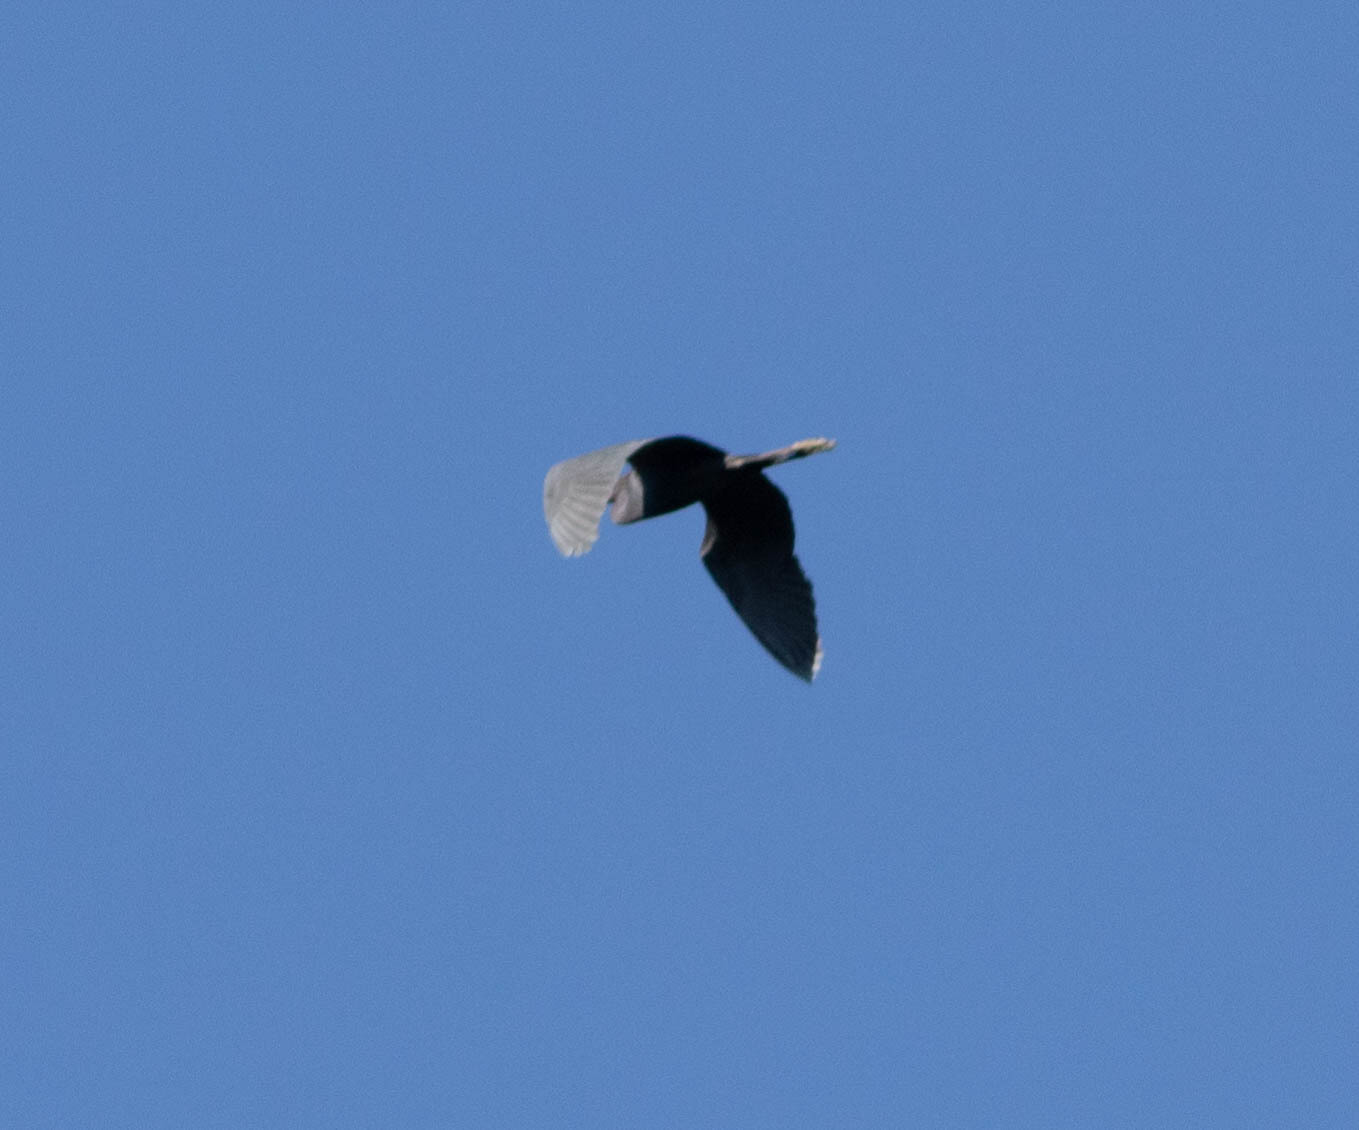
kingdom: Animalia
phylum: Chordata
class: Aves
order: Pelecaniformes
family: Ardeidae
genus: Egretta
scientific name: Egretta caerulea
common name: Little blue heron
